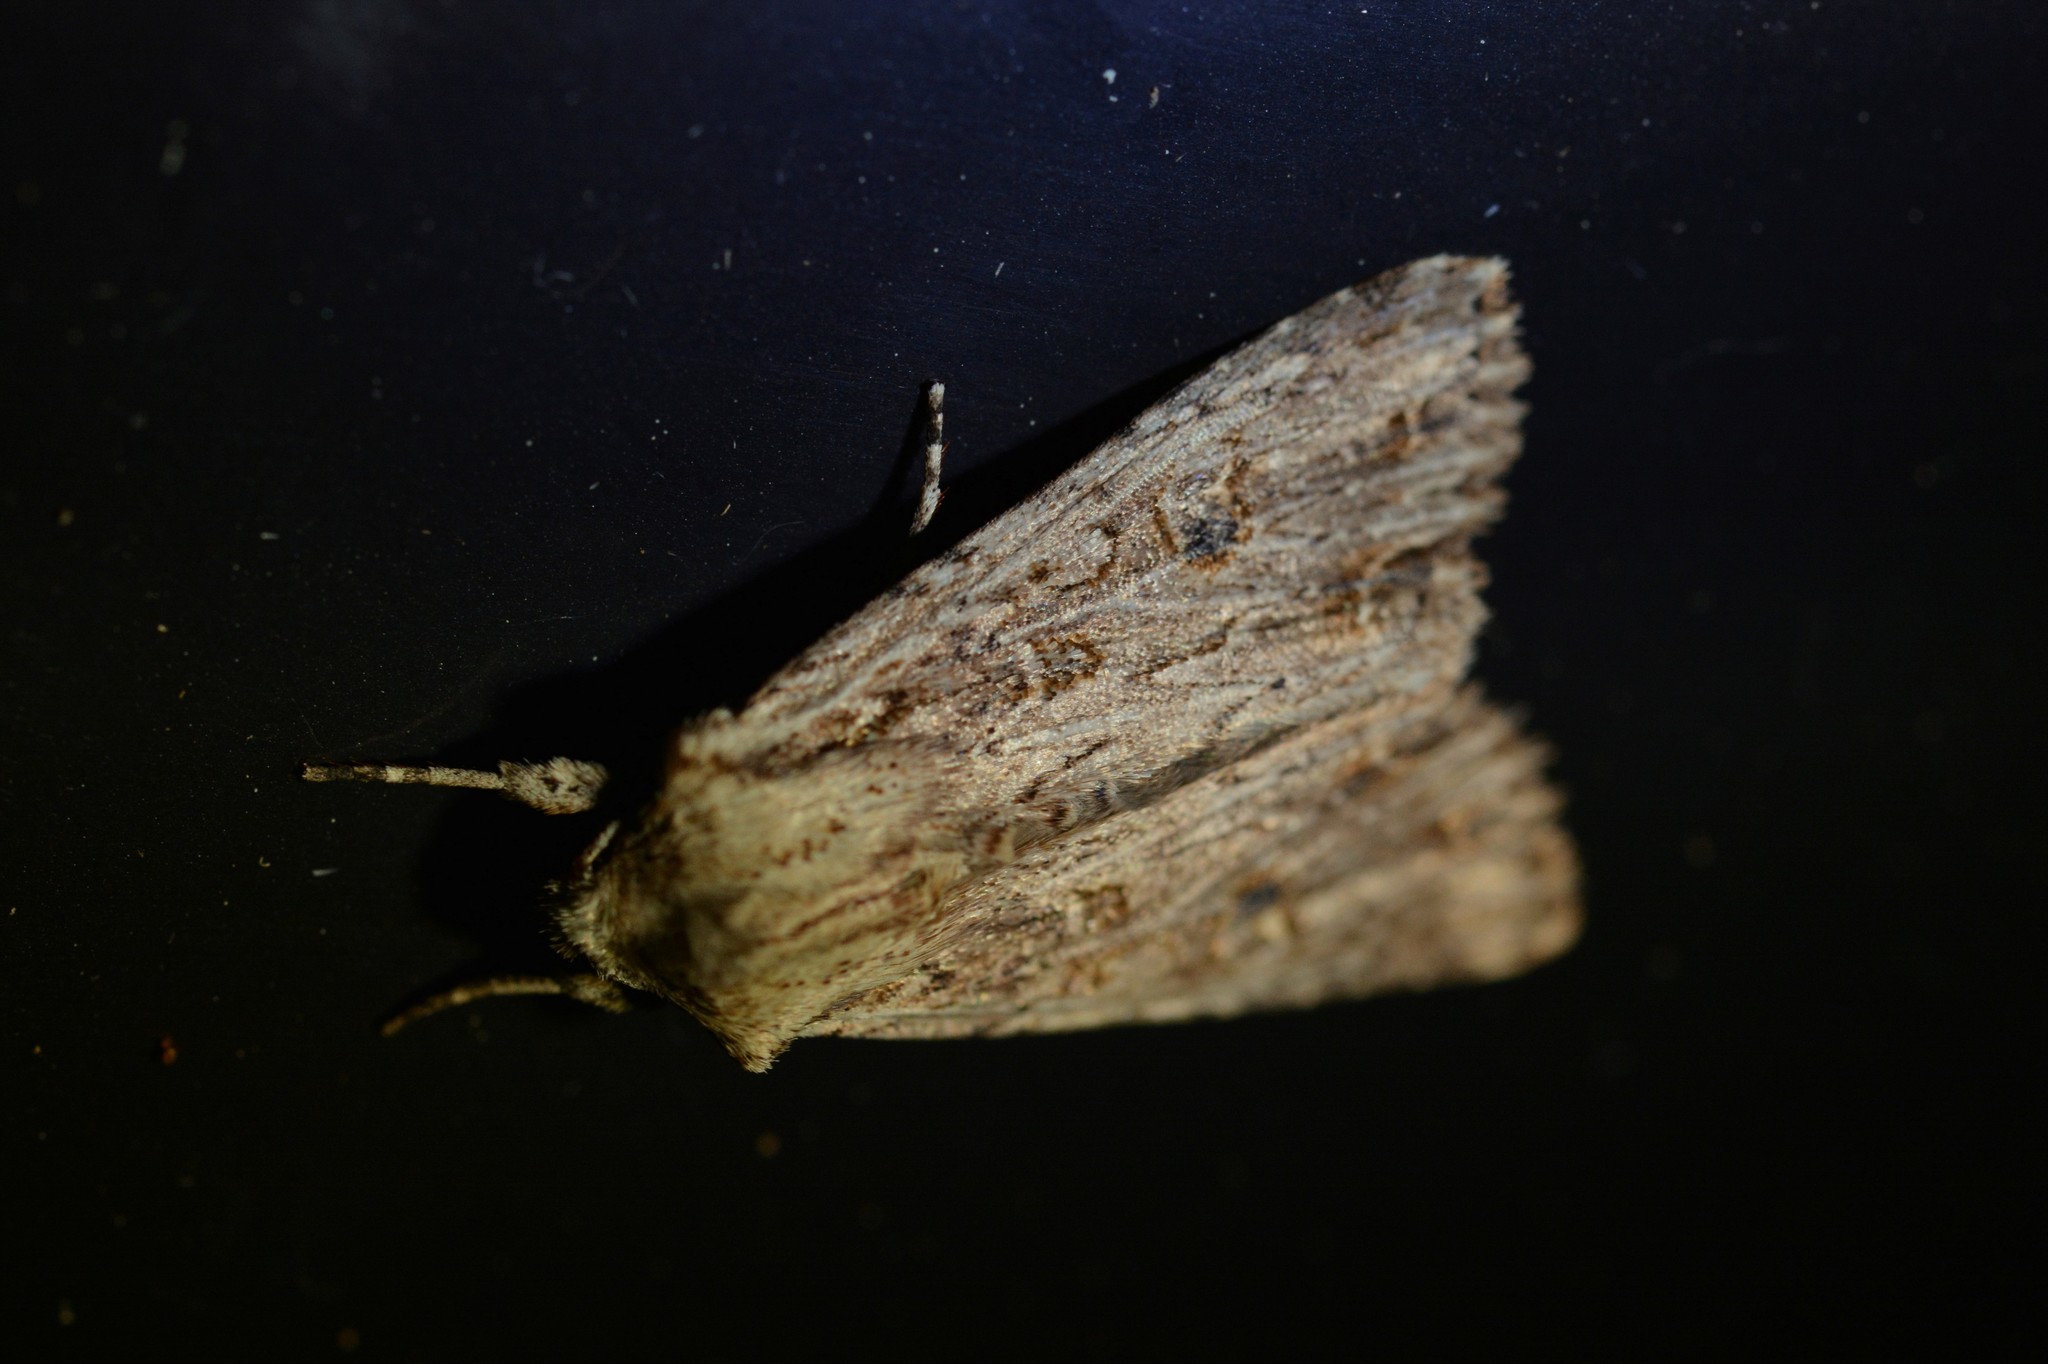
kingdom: Animalia
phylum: Arthropoda
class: Insecta
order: Lepidoptera
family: Noctuidae
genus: Ichneutica
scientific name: Ichneutica lignana
